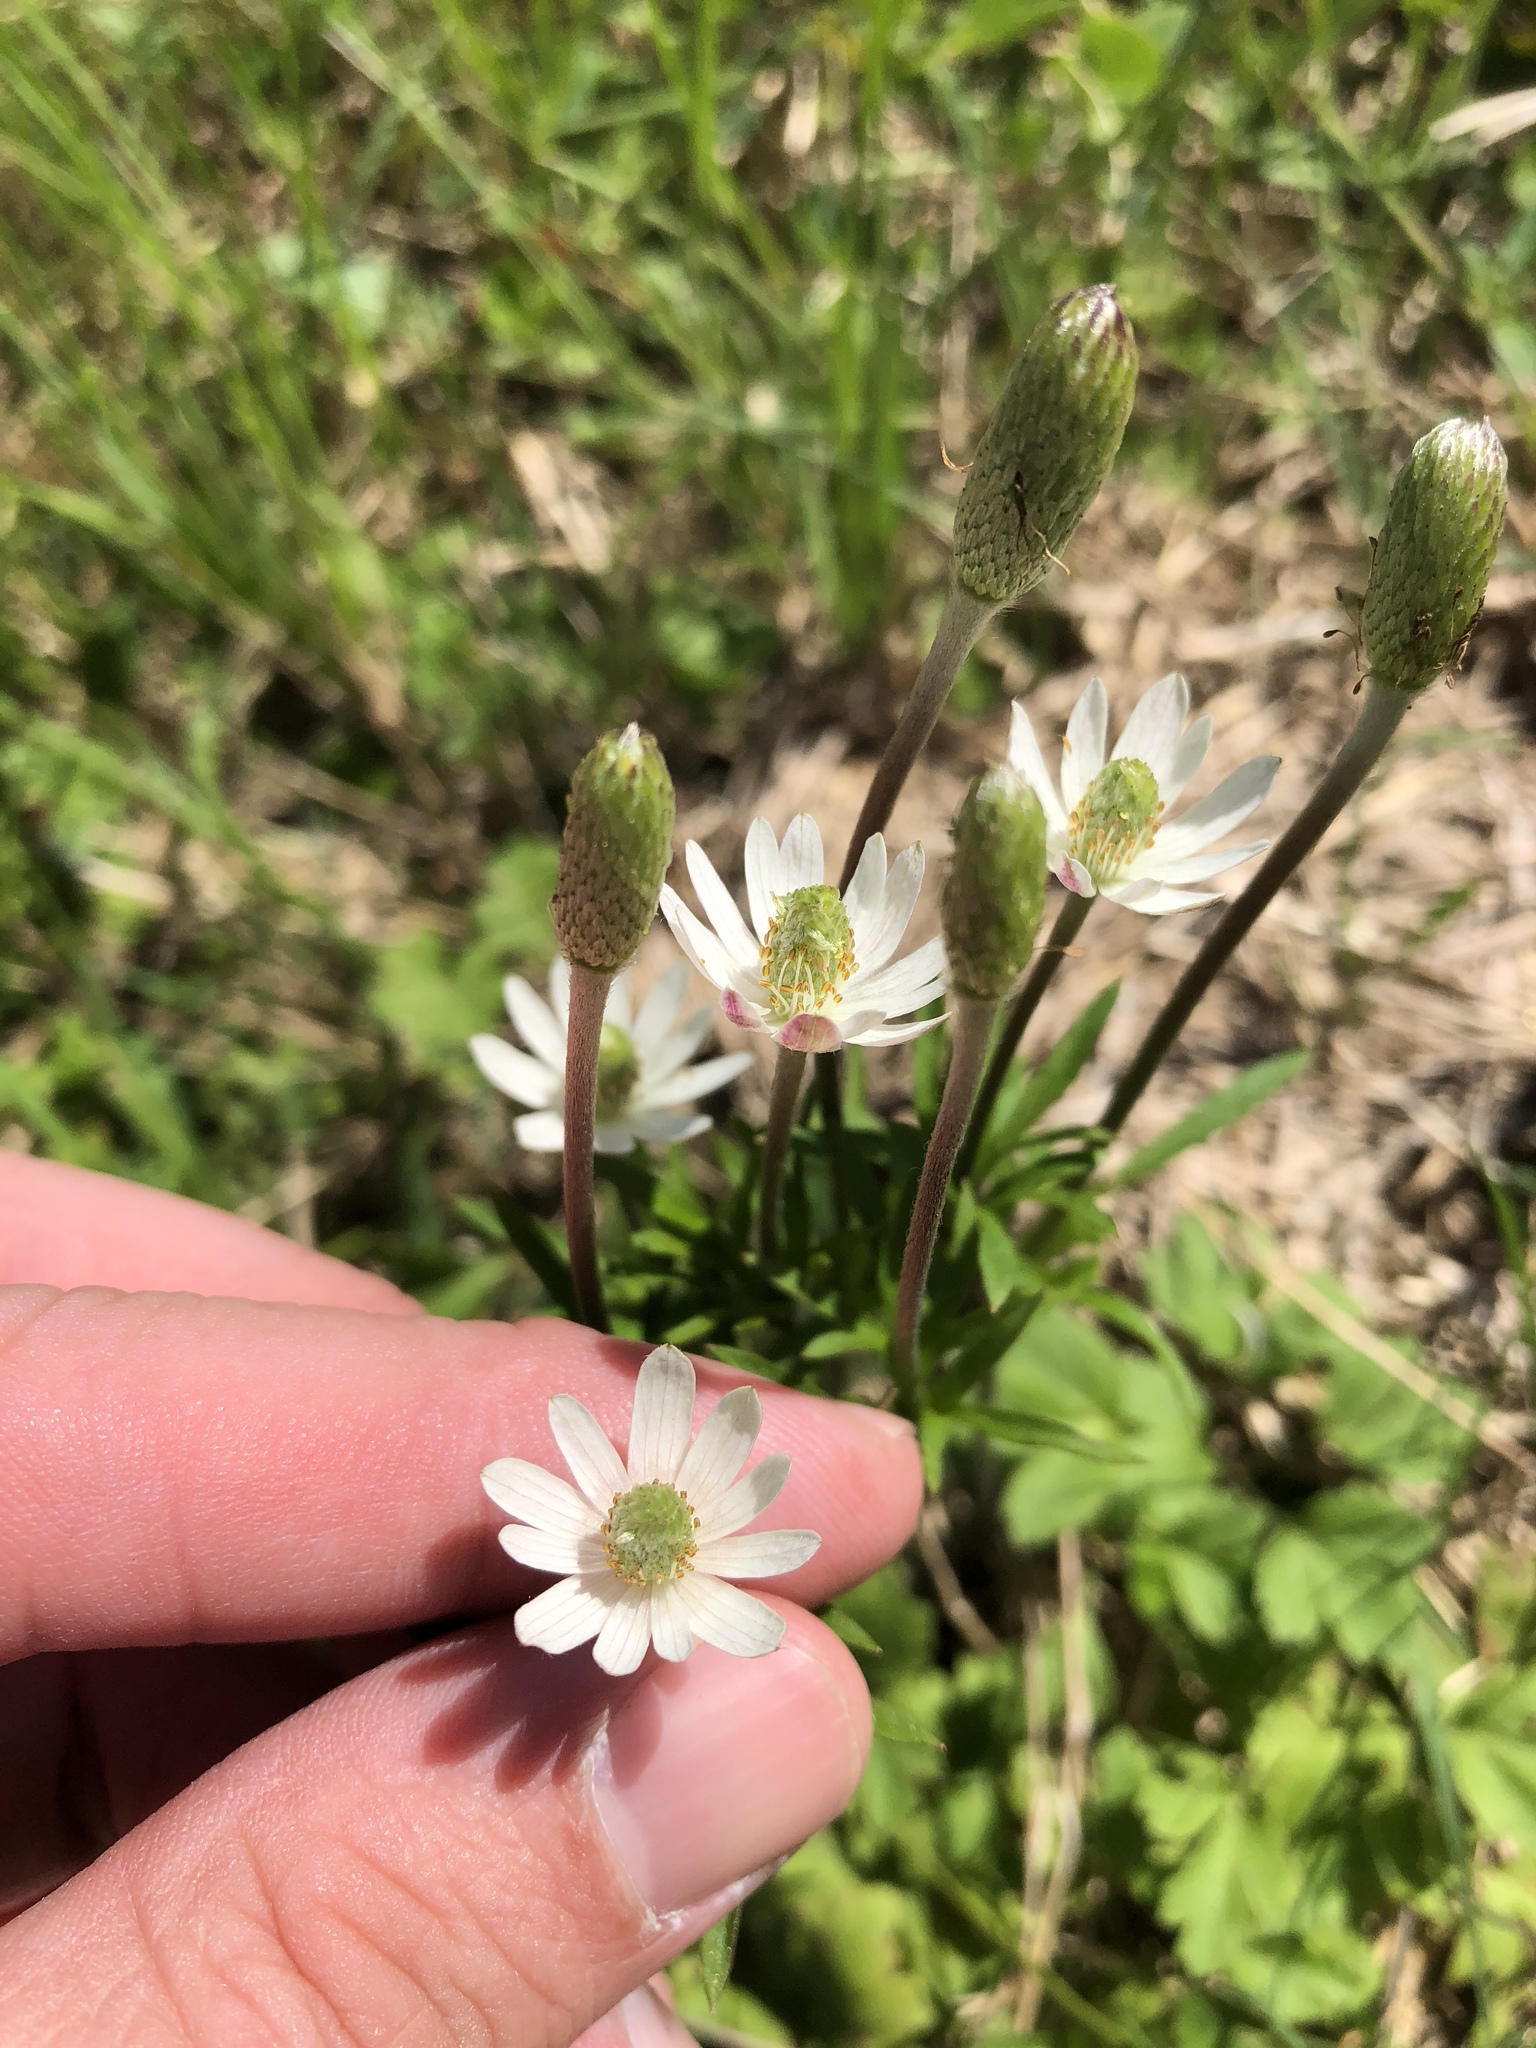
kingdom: Plantae
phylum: Tracheophyta
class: Magnoliopsida
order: Ranunculales
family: Ranunculaceae
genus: Anemone
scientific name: Anemone berlandieri
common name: Ten-petal anemone
